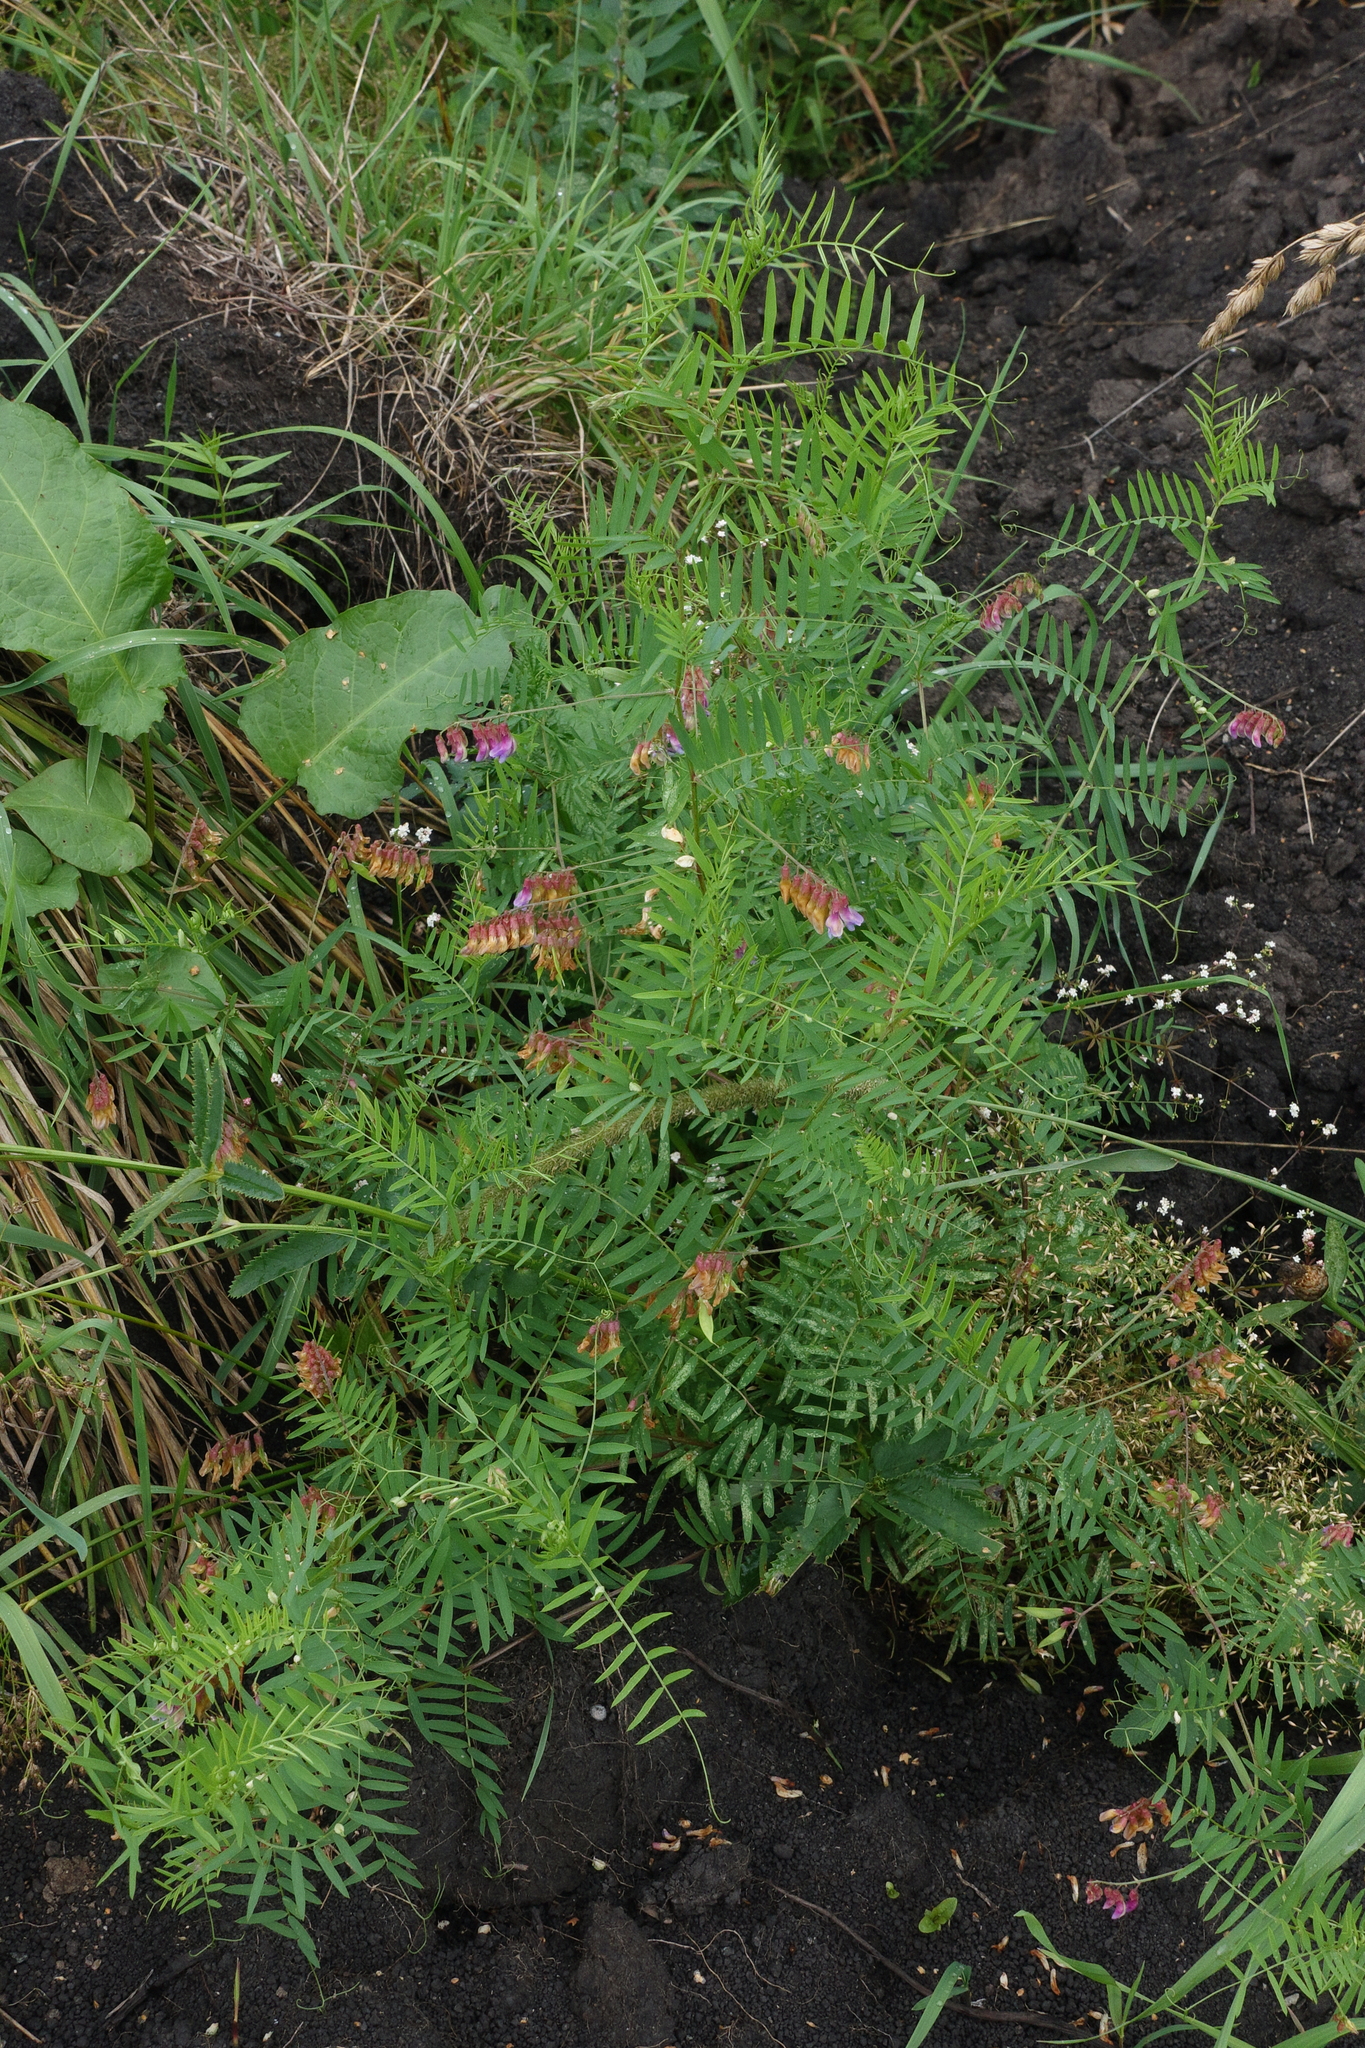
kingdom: Plantae
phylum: Tracheophyta
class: Magnoliopsida
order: Fabales
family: Fabaceae
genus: Vicia
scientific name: Vicia megalotropis
